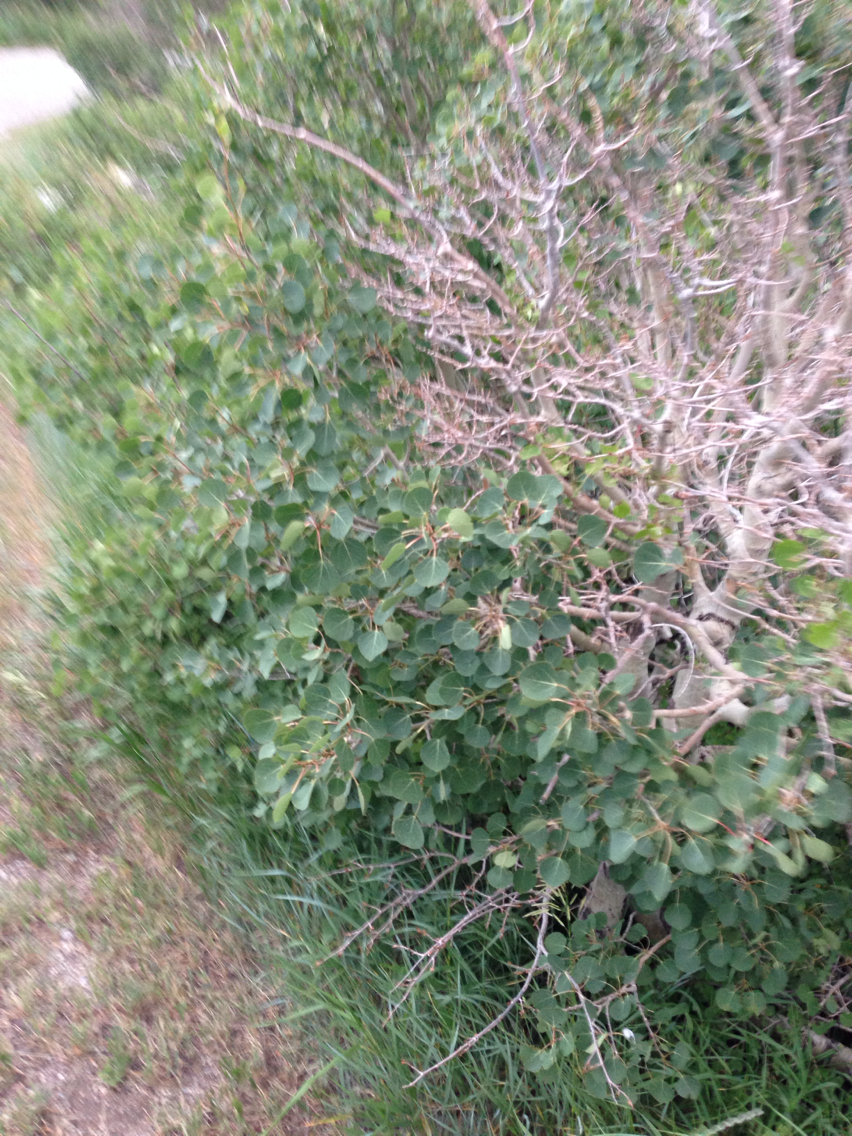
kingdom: Plantae
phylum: Tracheophyta
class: Magnoliopsida
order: Malpighiales
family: Salicaceae
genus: Populus
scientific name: Populus tremuloides
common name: Quaking aspen
